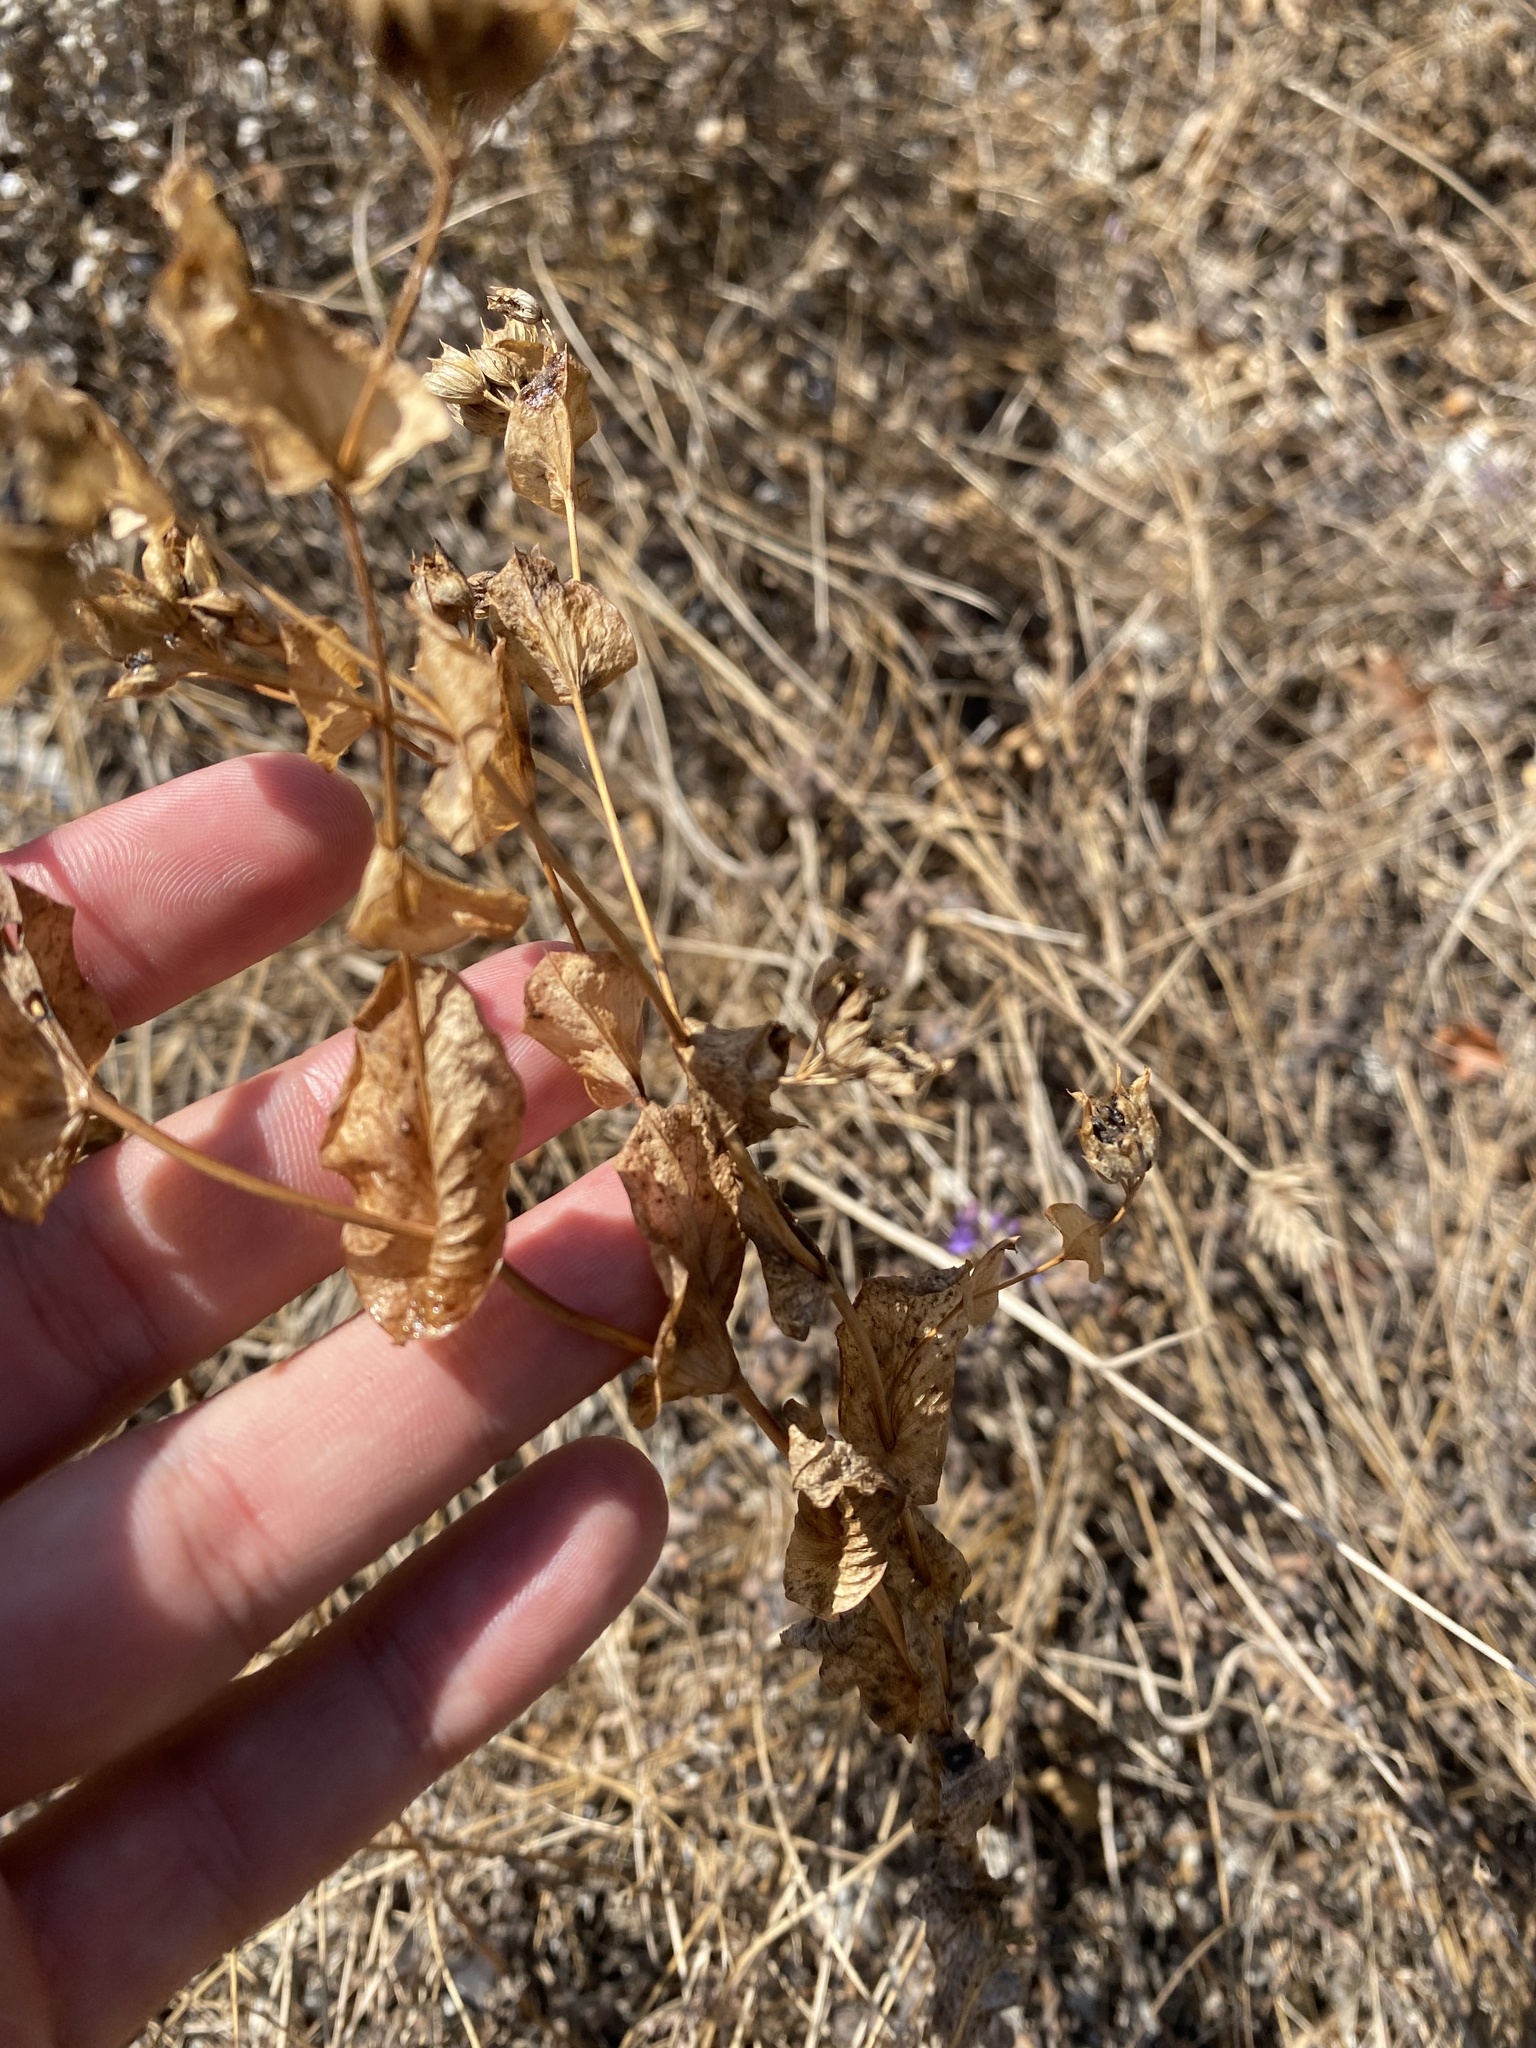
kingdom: Plantae
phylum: Tracheophyta
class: Magnoliopsida
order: Apiales
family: Apiaceae
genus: Bupleurum
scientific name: Bupleurum rotundifolium
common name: Thorow-wax
